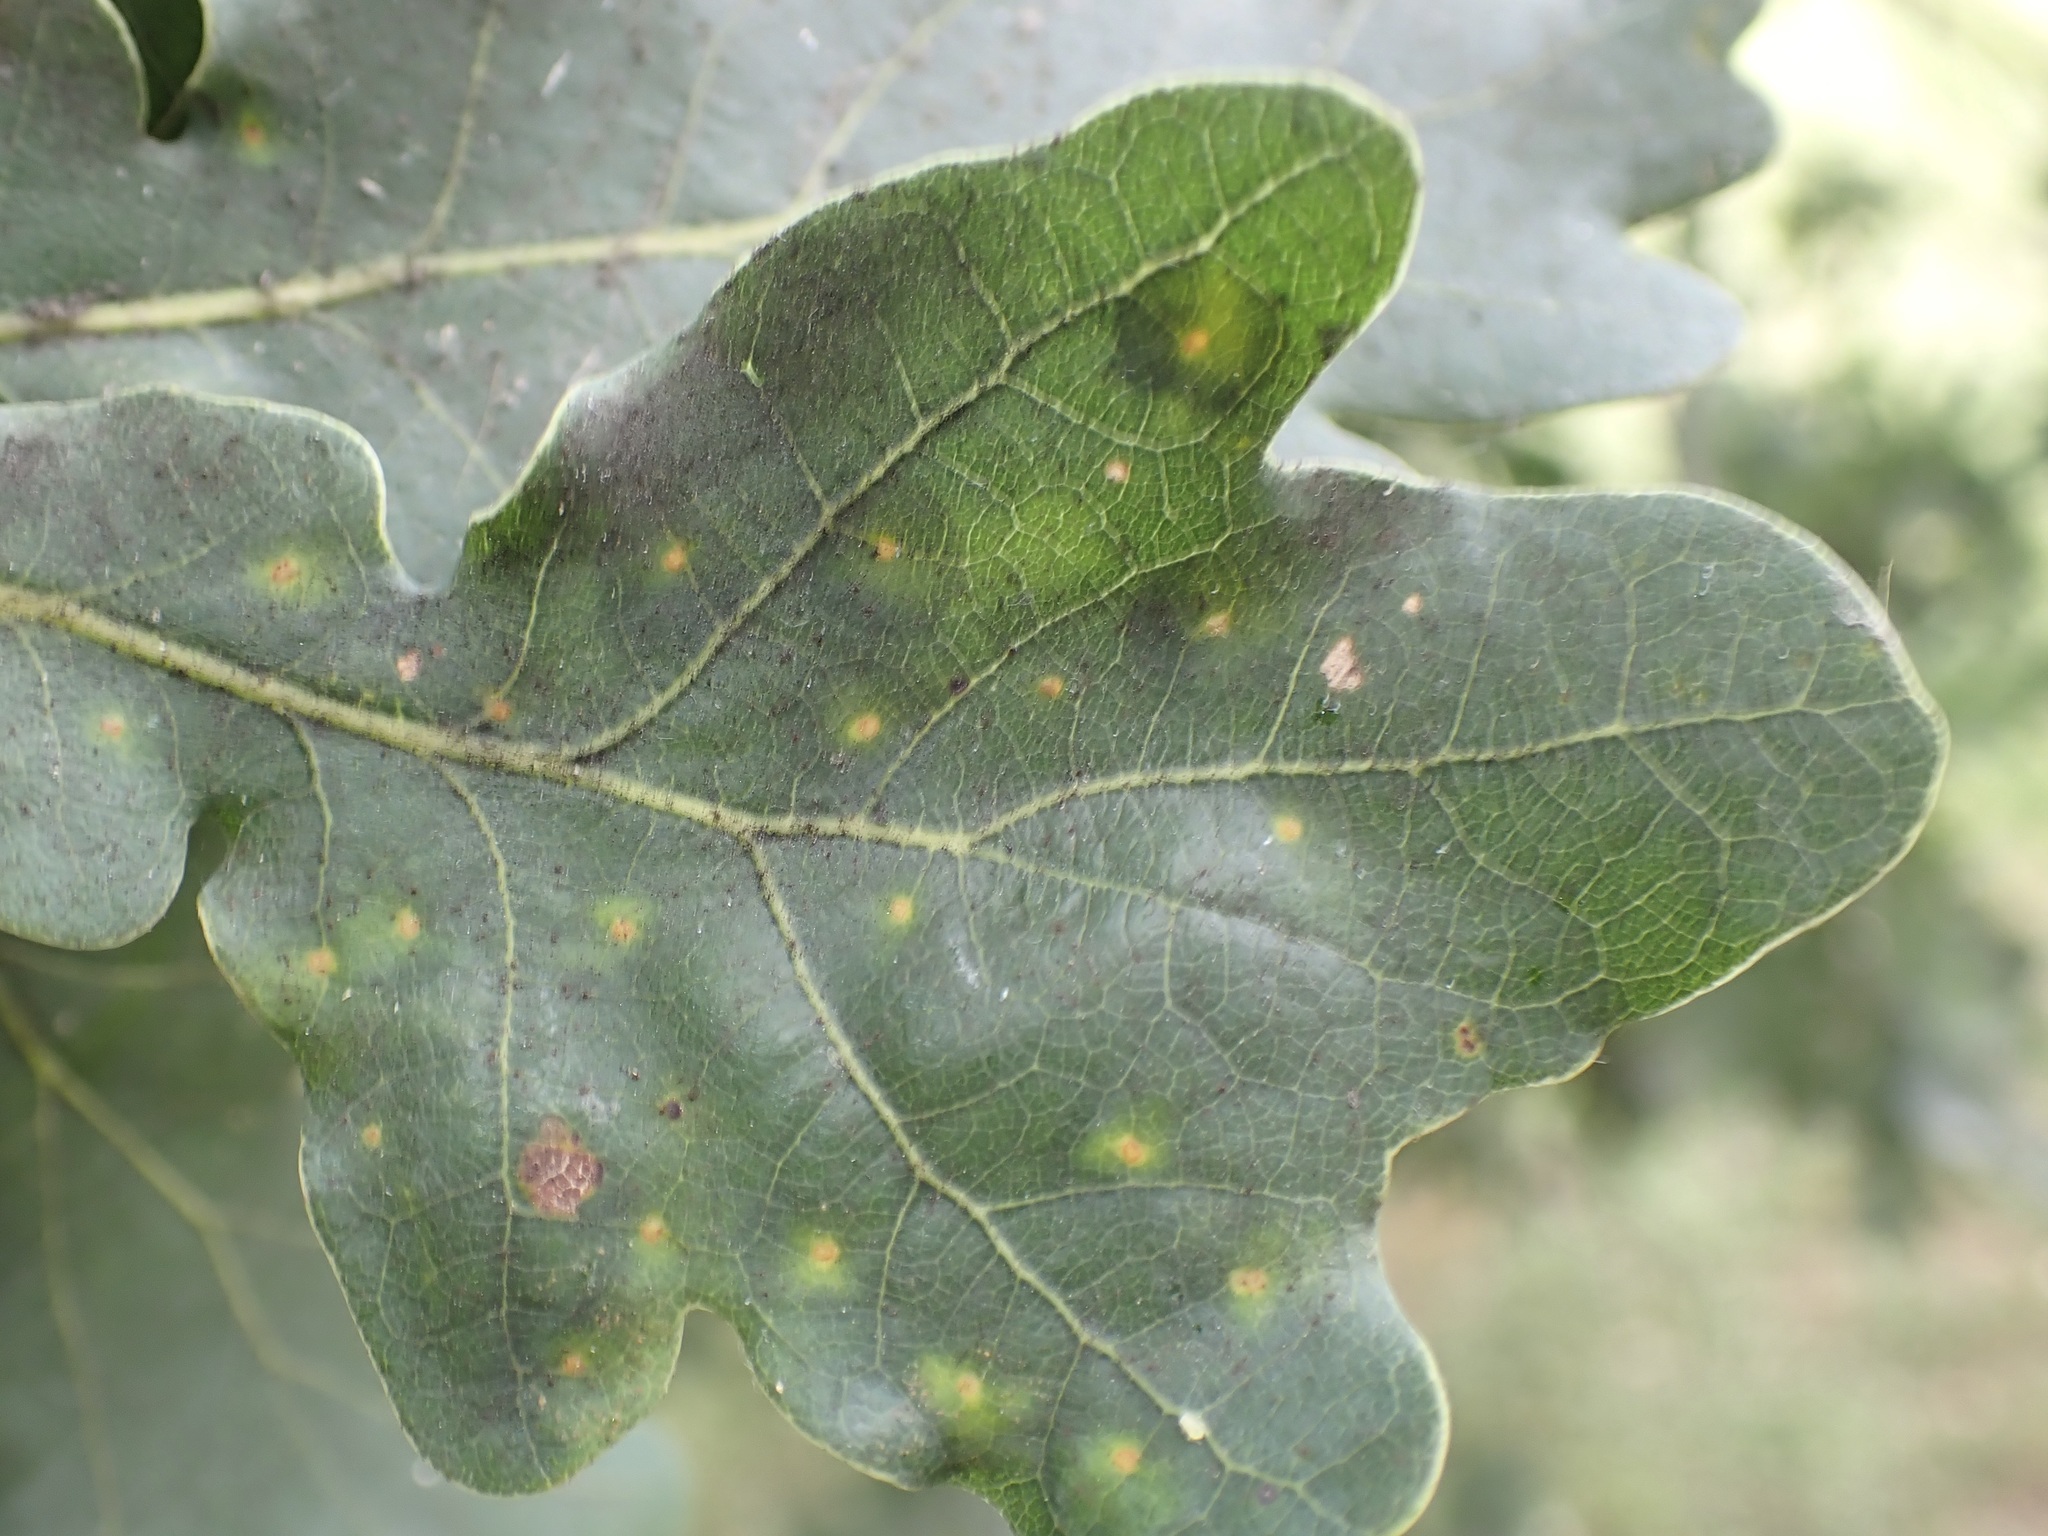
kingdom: Animalia
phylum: Arthropoda
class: Insecta
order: Hymenoptera
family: Cynipidae
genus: Neuroterus
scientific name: Neuroterus quercusbaccarum
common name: Common spangle gall
